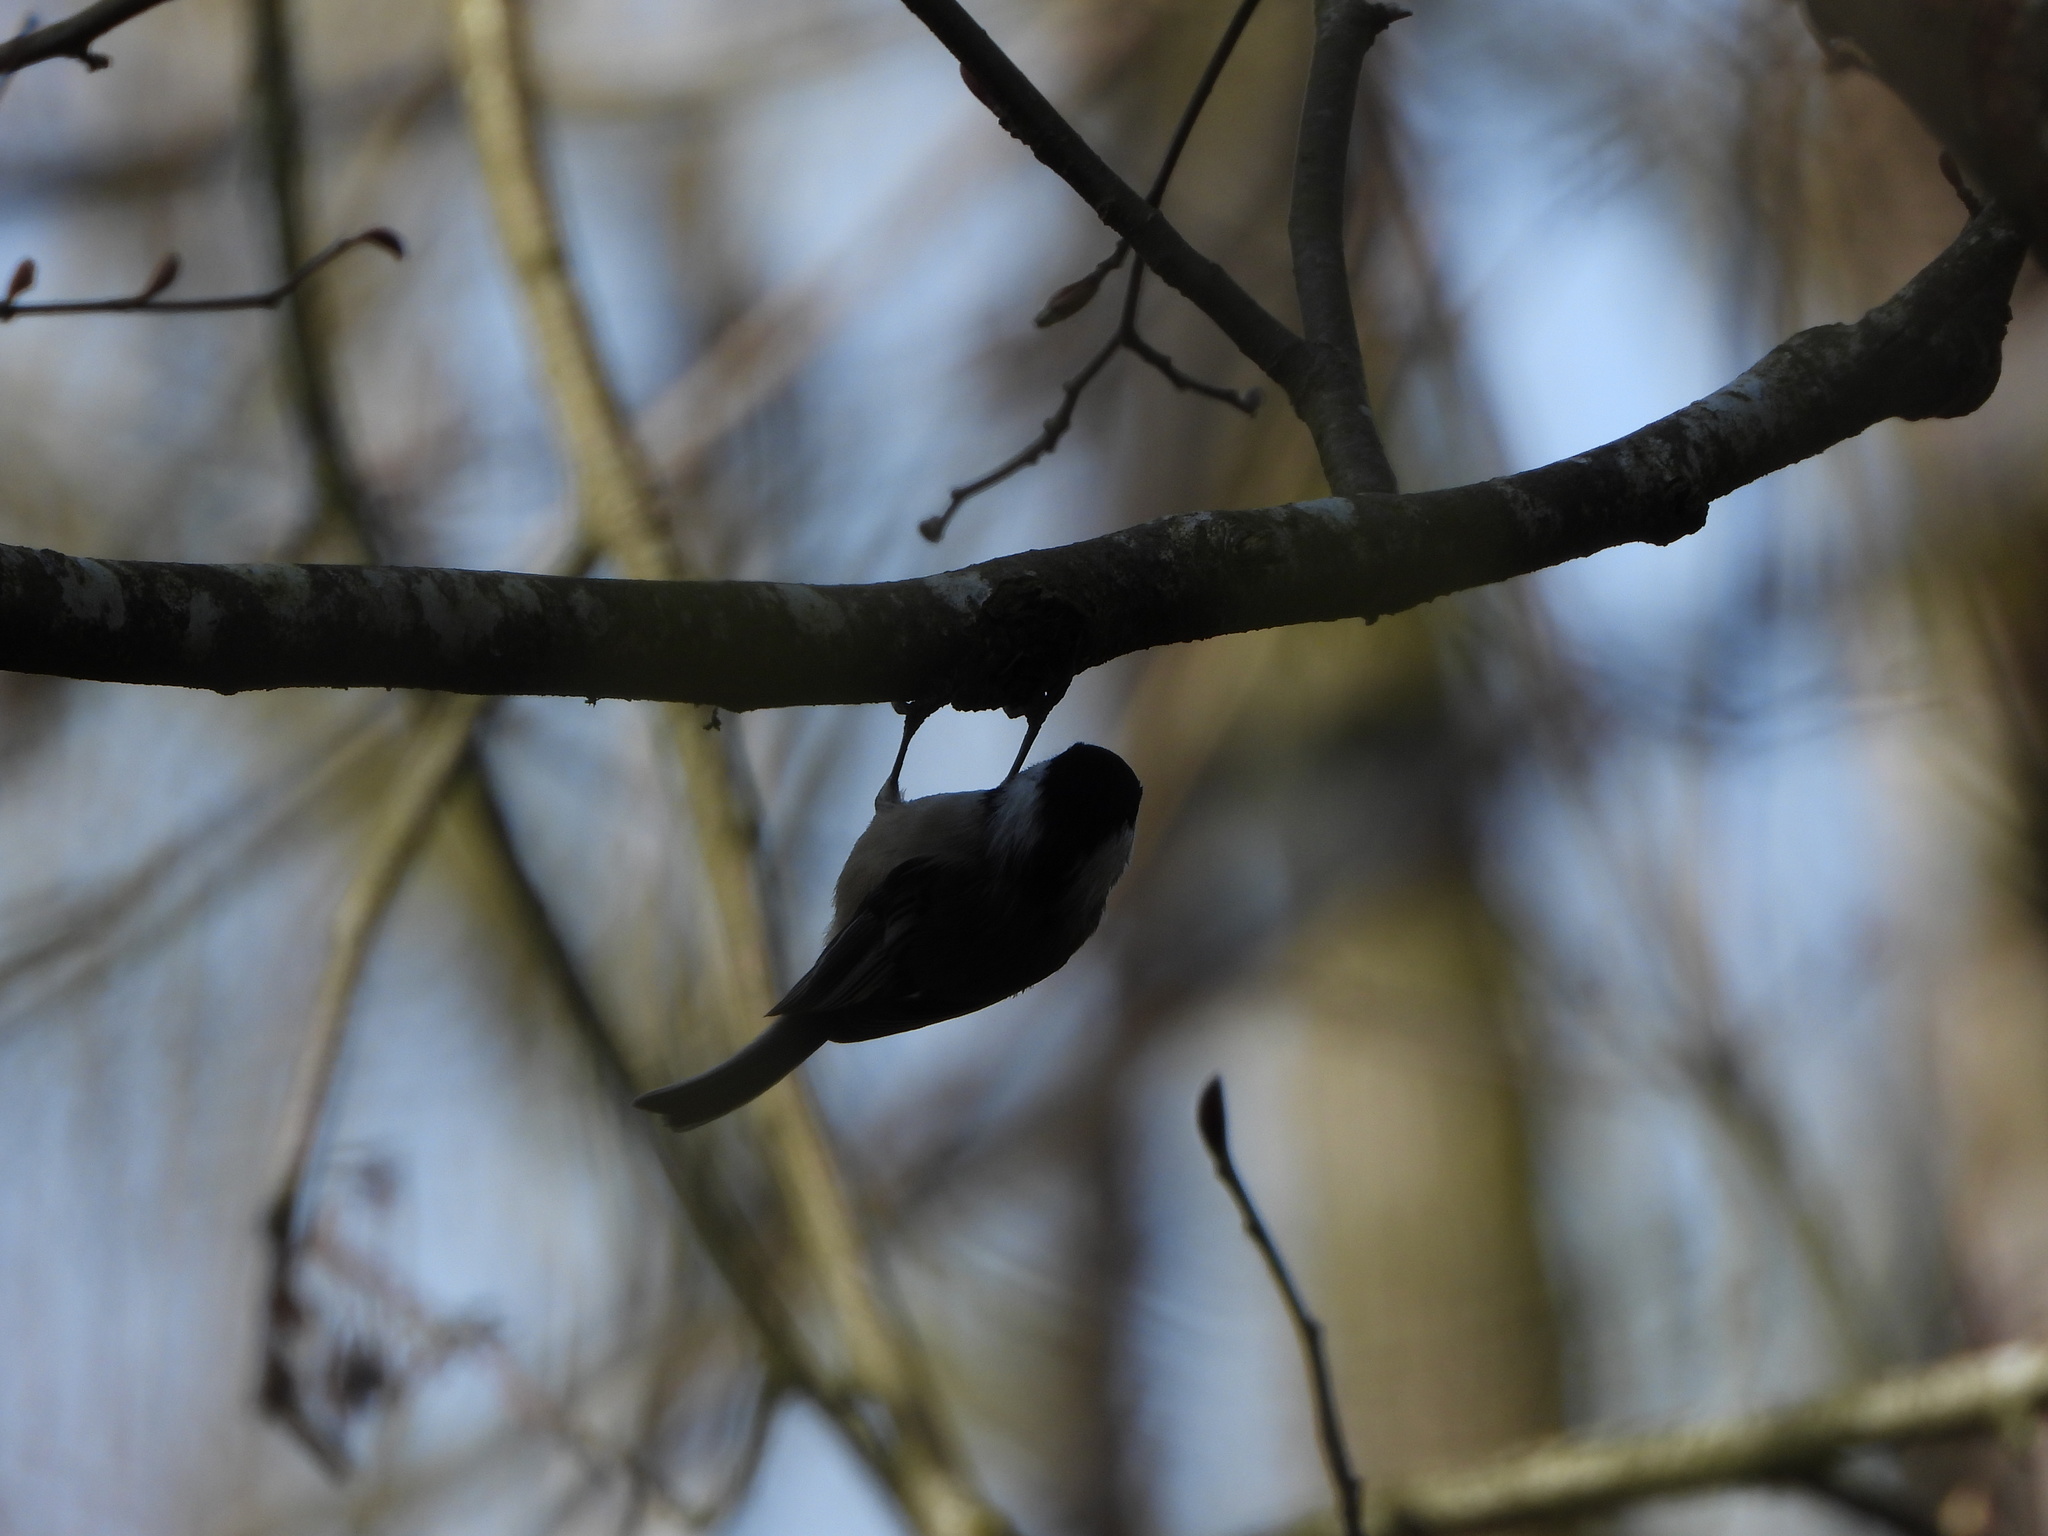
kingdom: Animalia
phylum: Chordata
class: Aves
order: Passeriformes
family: Paridae
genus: Poecile
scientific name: Poecile atricapillus
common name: Black-capped chickadee
